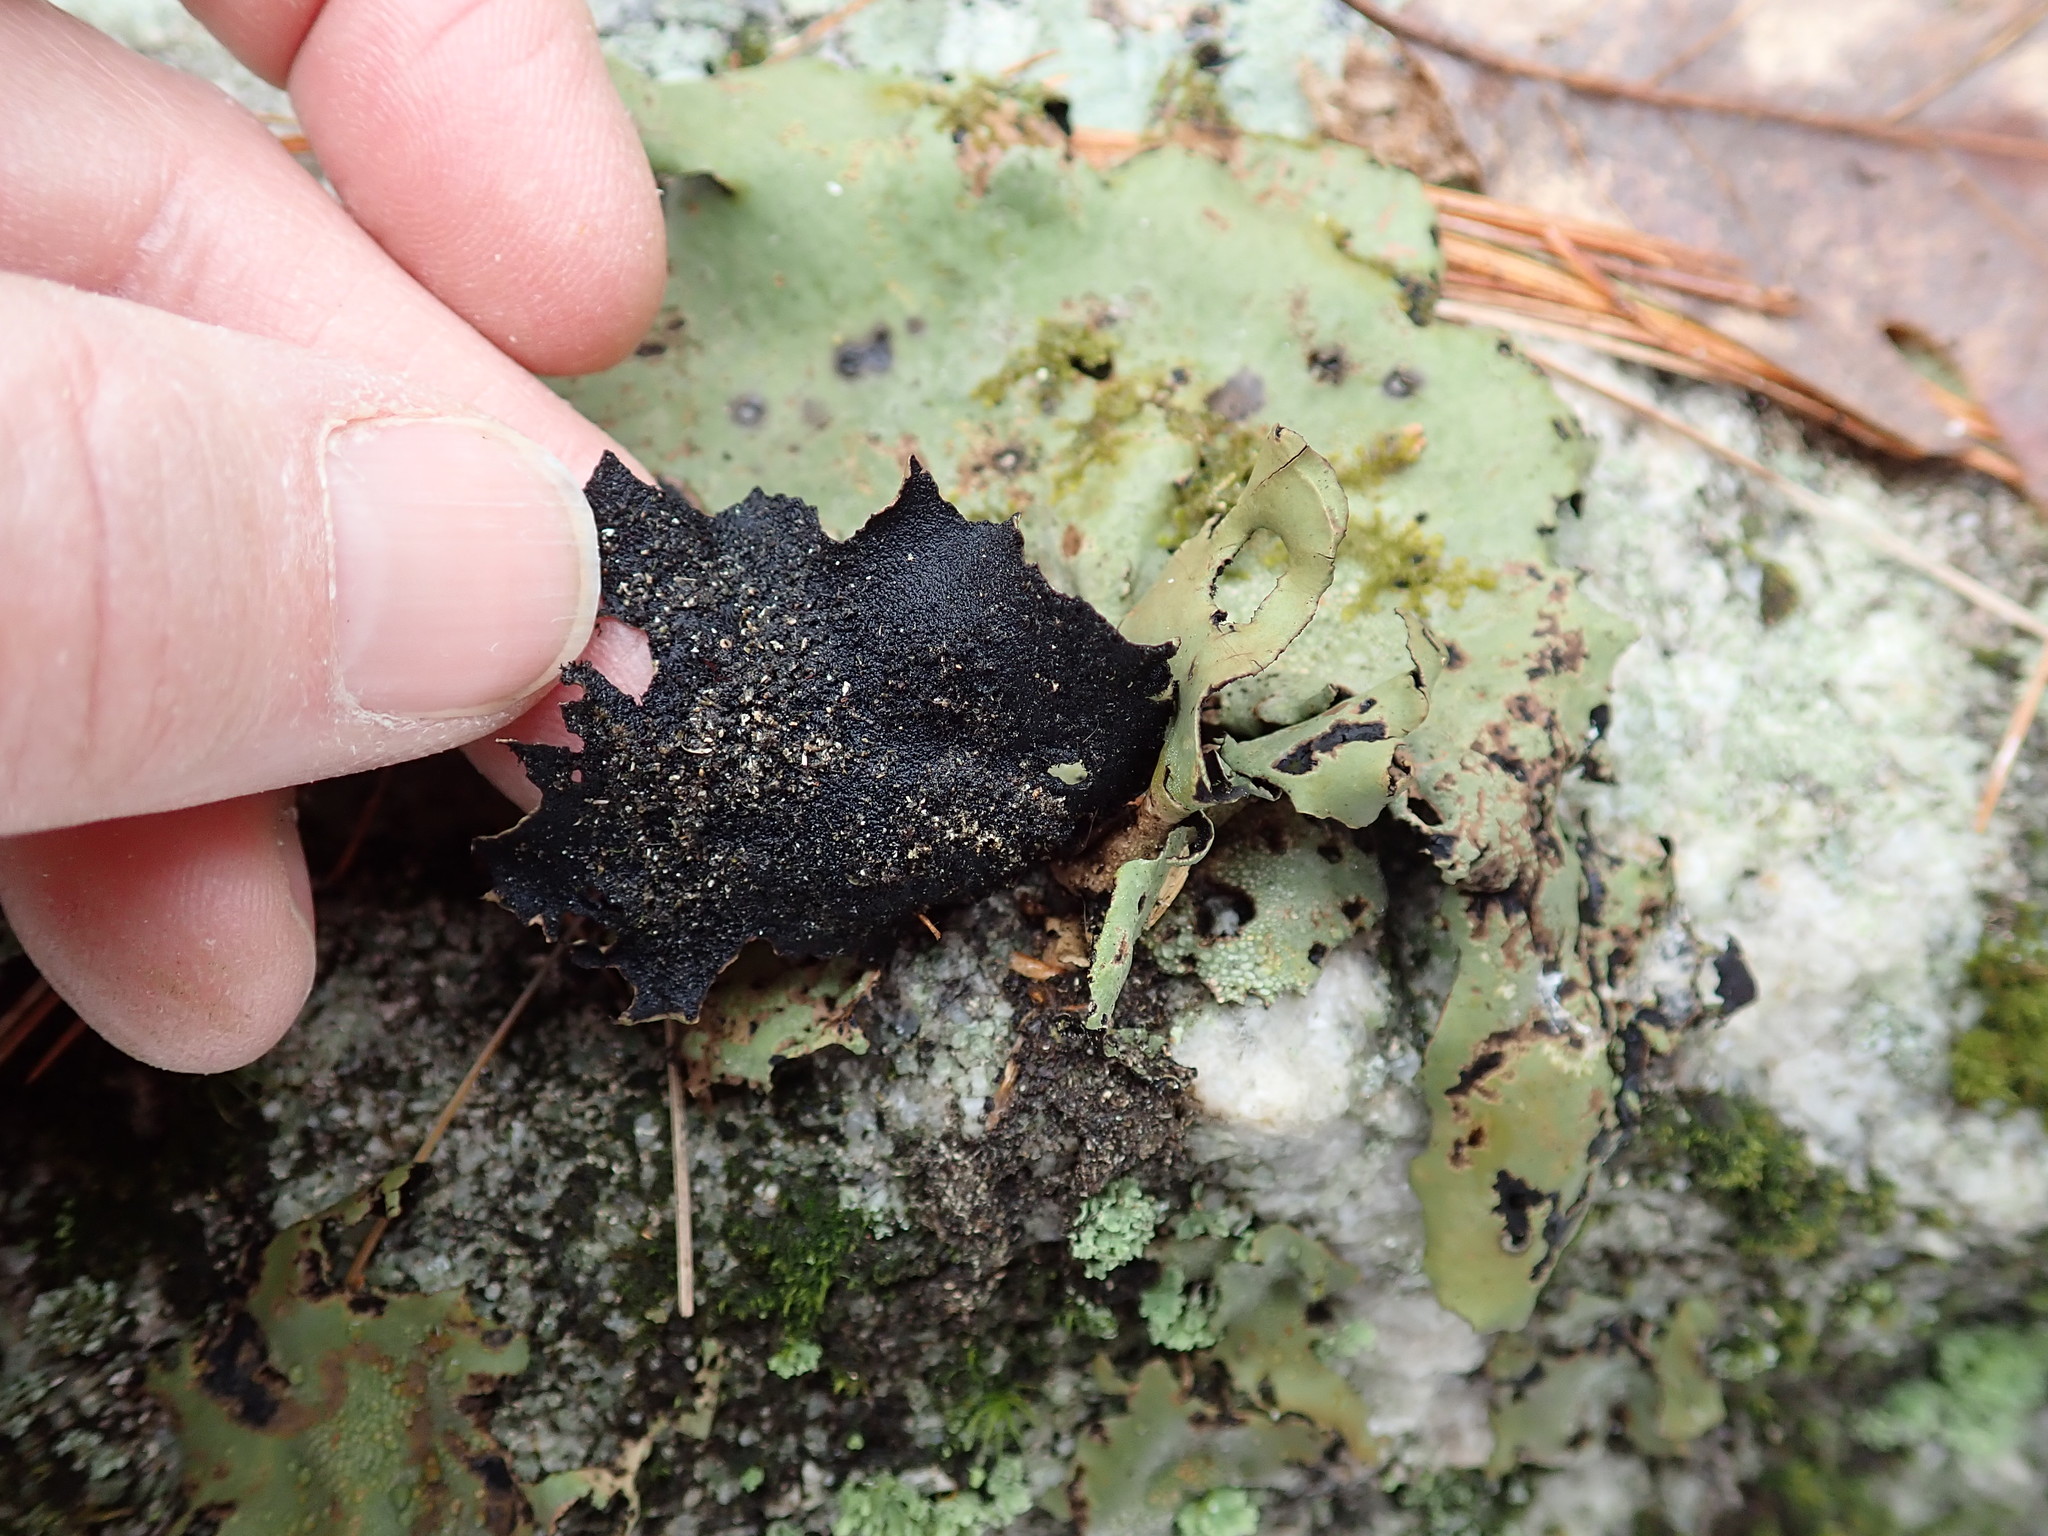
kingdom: Fungi
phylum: Ascomycota
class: Lecanoromycetes
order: Umbilicariales
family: Umbilicariaceae
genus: Umbilicaria
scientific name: Umbilicaria mammulata
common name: Smooth rock tripe
